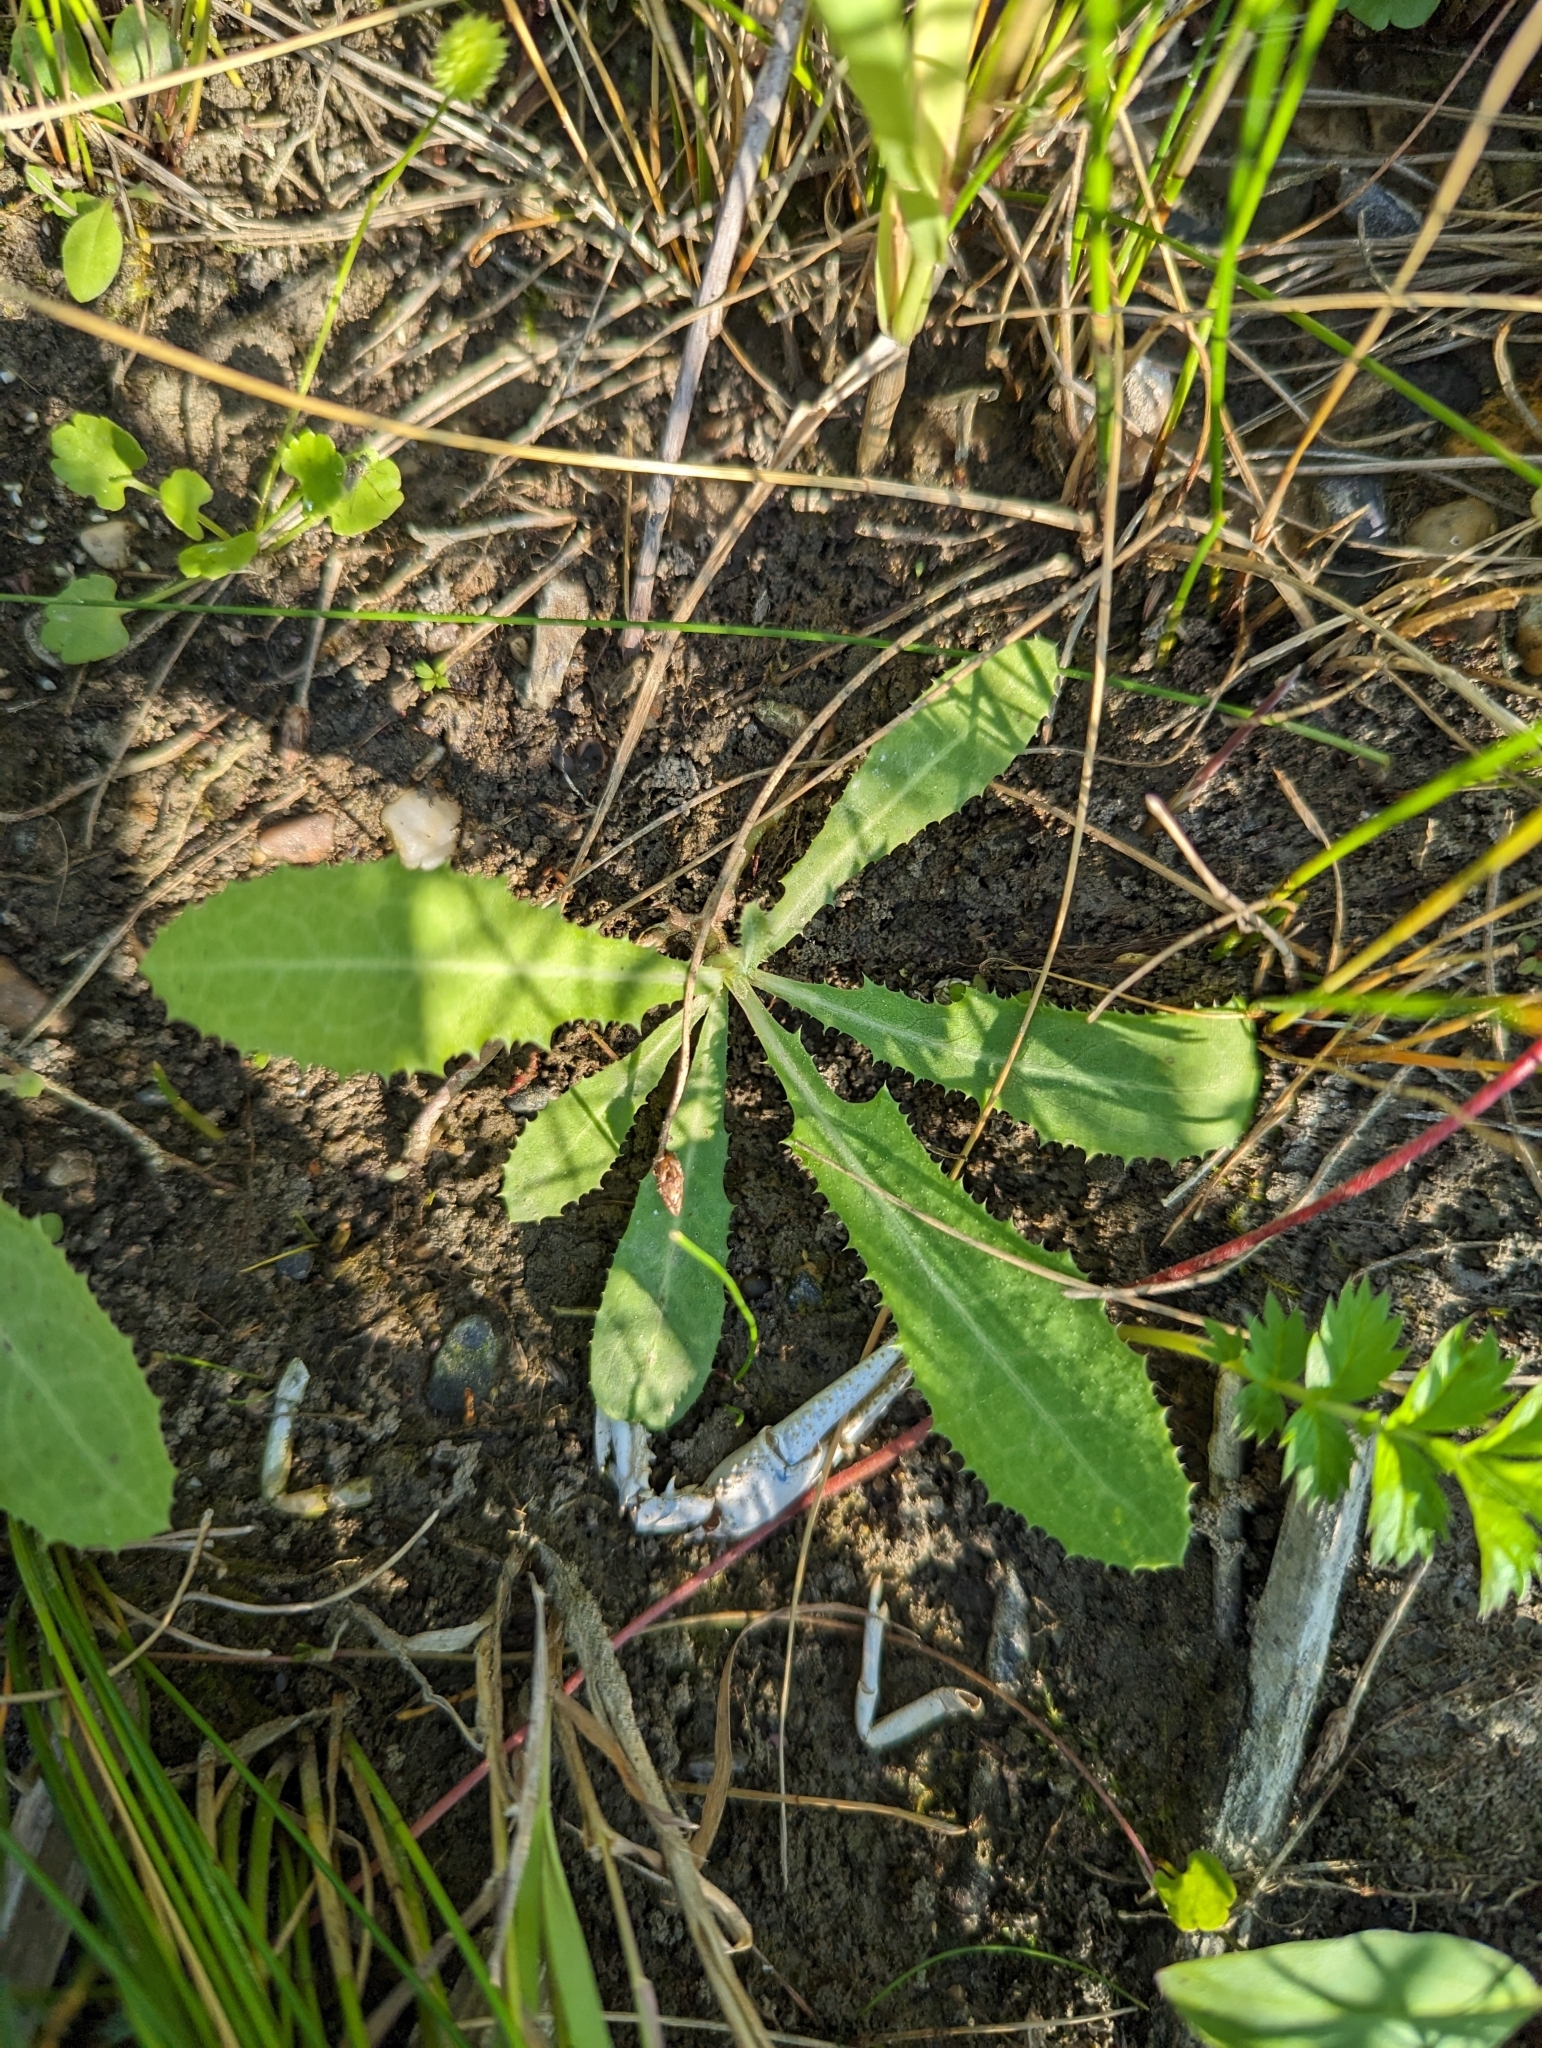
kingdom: Plantae
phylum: Tracheophyta
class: Magnoliopsida
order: Asterales
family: Asteraceae
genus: Sonchus
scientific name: Sonchus arvensis
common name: Perennial sow-thistle
